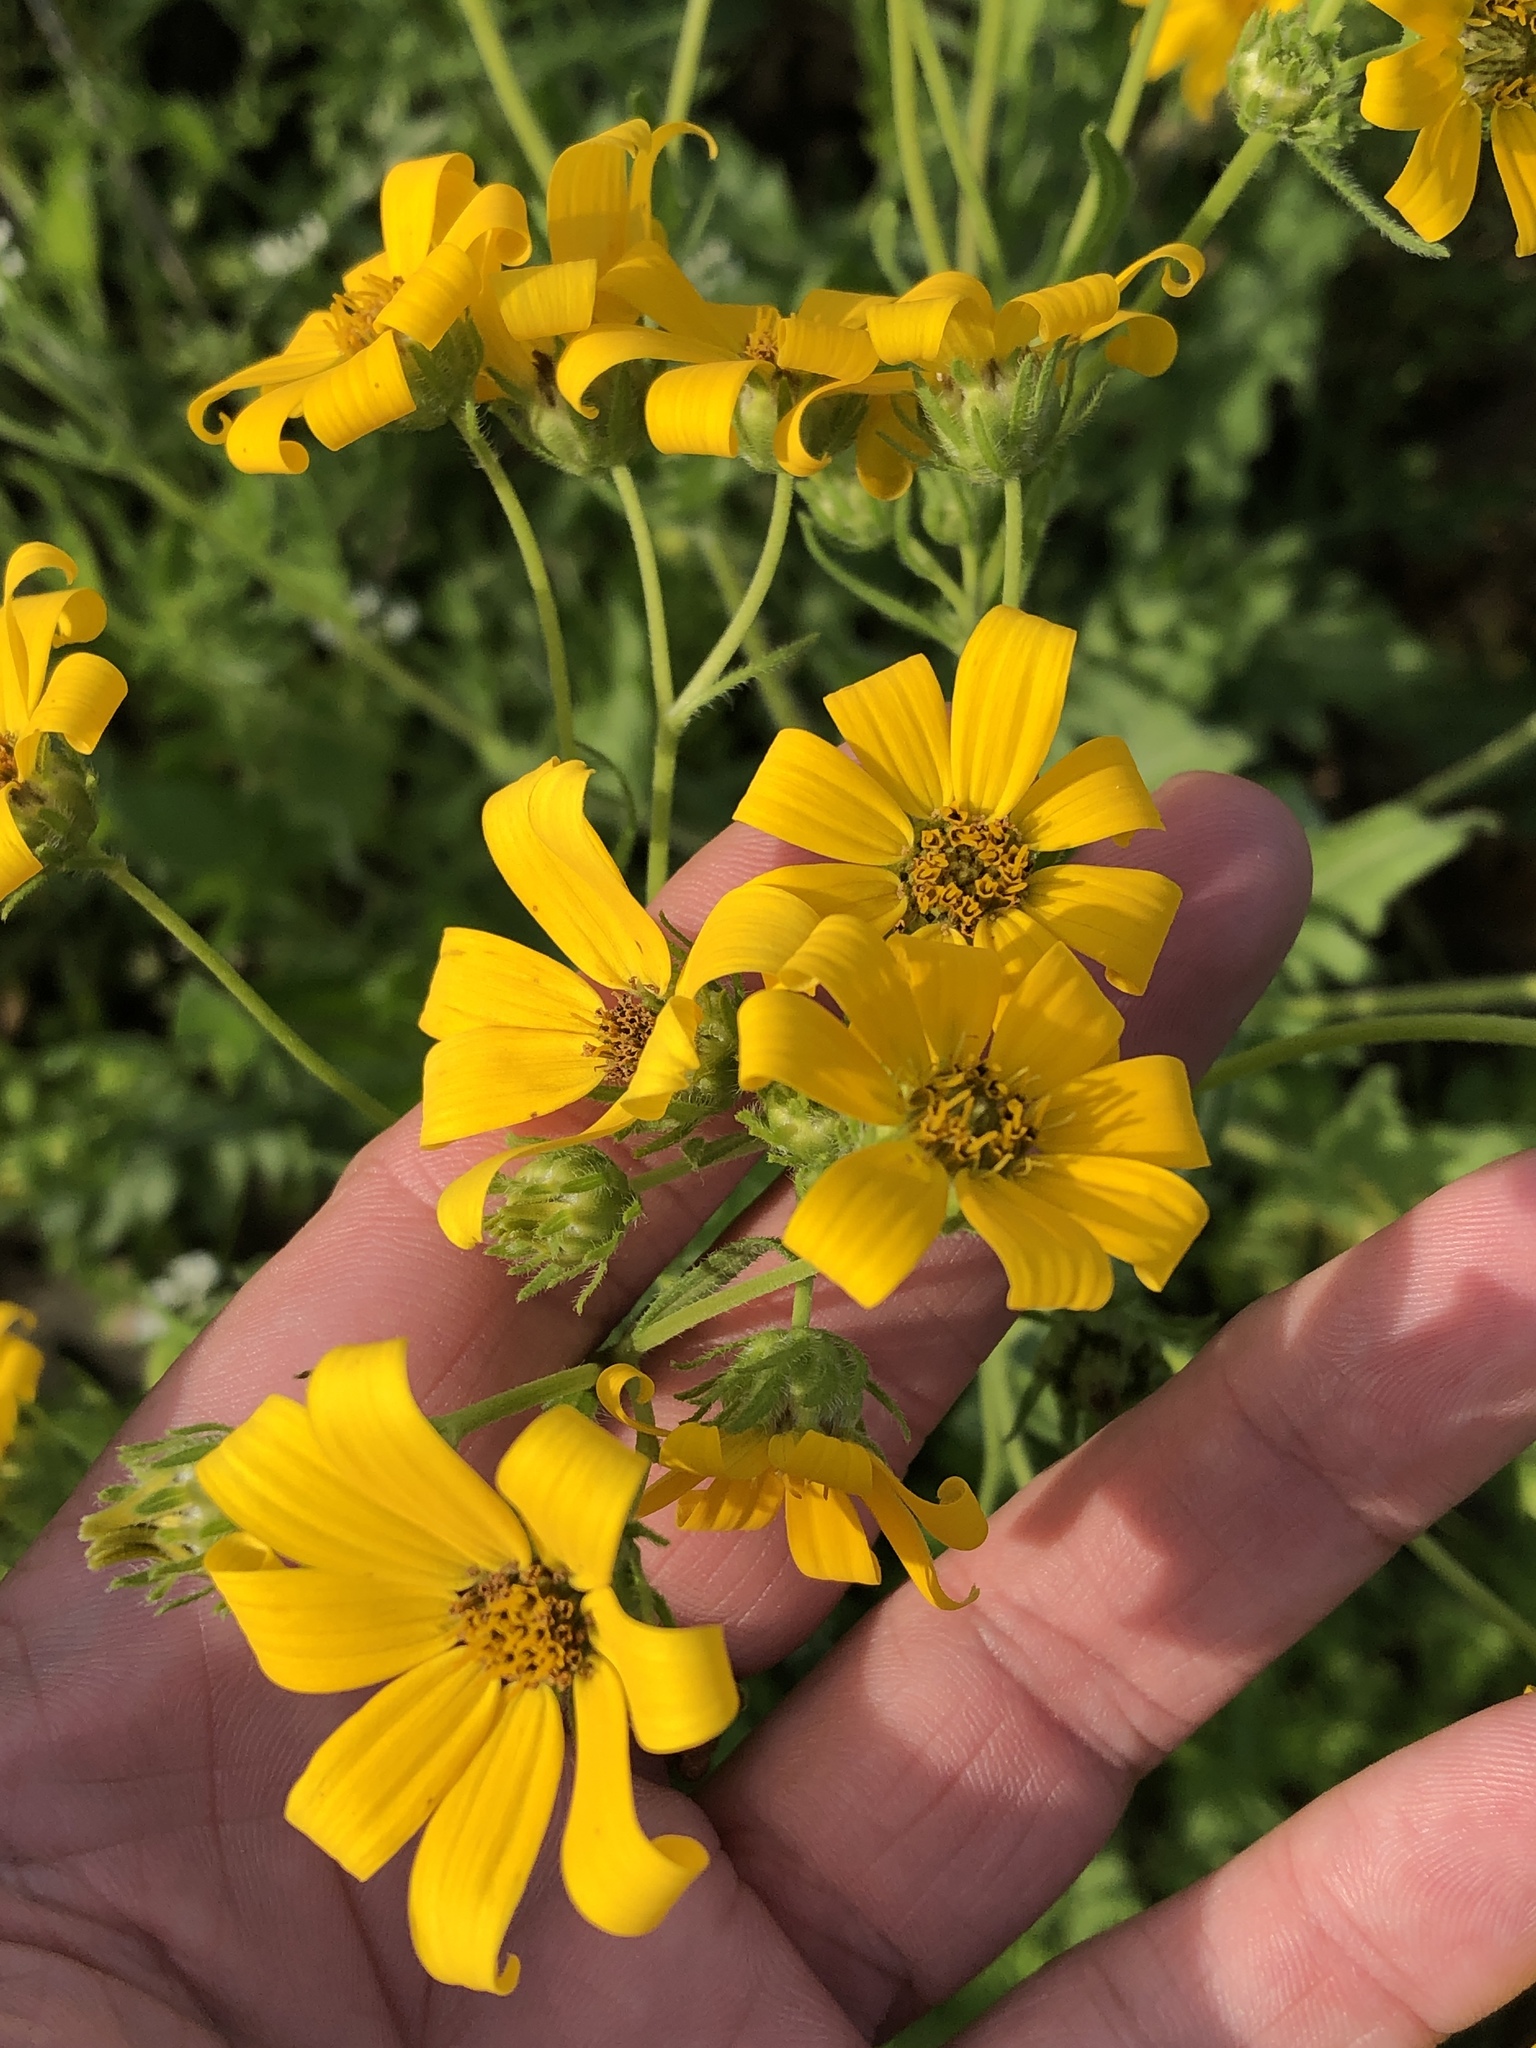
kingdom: Plantae
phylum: Tracheophyta
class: Magnoliopsida
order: Asterales
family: Asteraceae
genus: Engelmannia
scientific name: Engelmannia peristenia
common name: Engelmann's daisy
